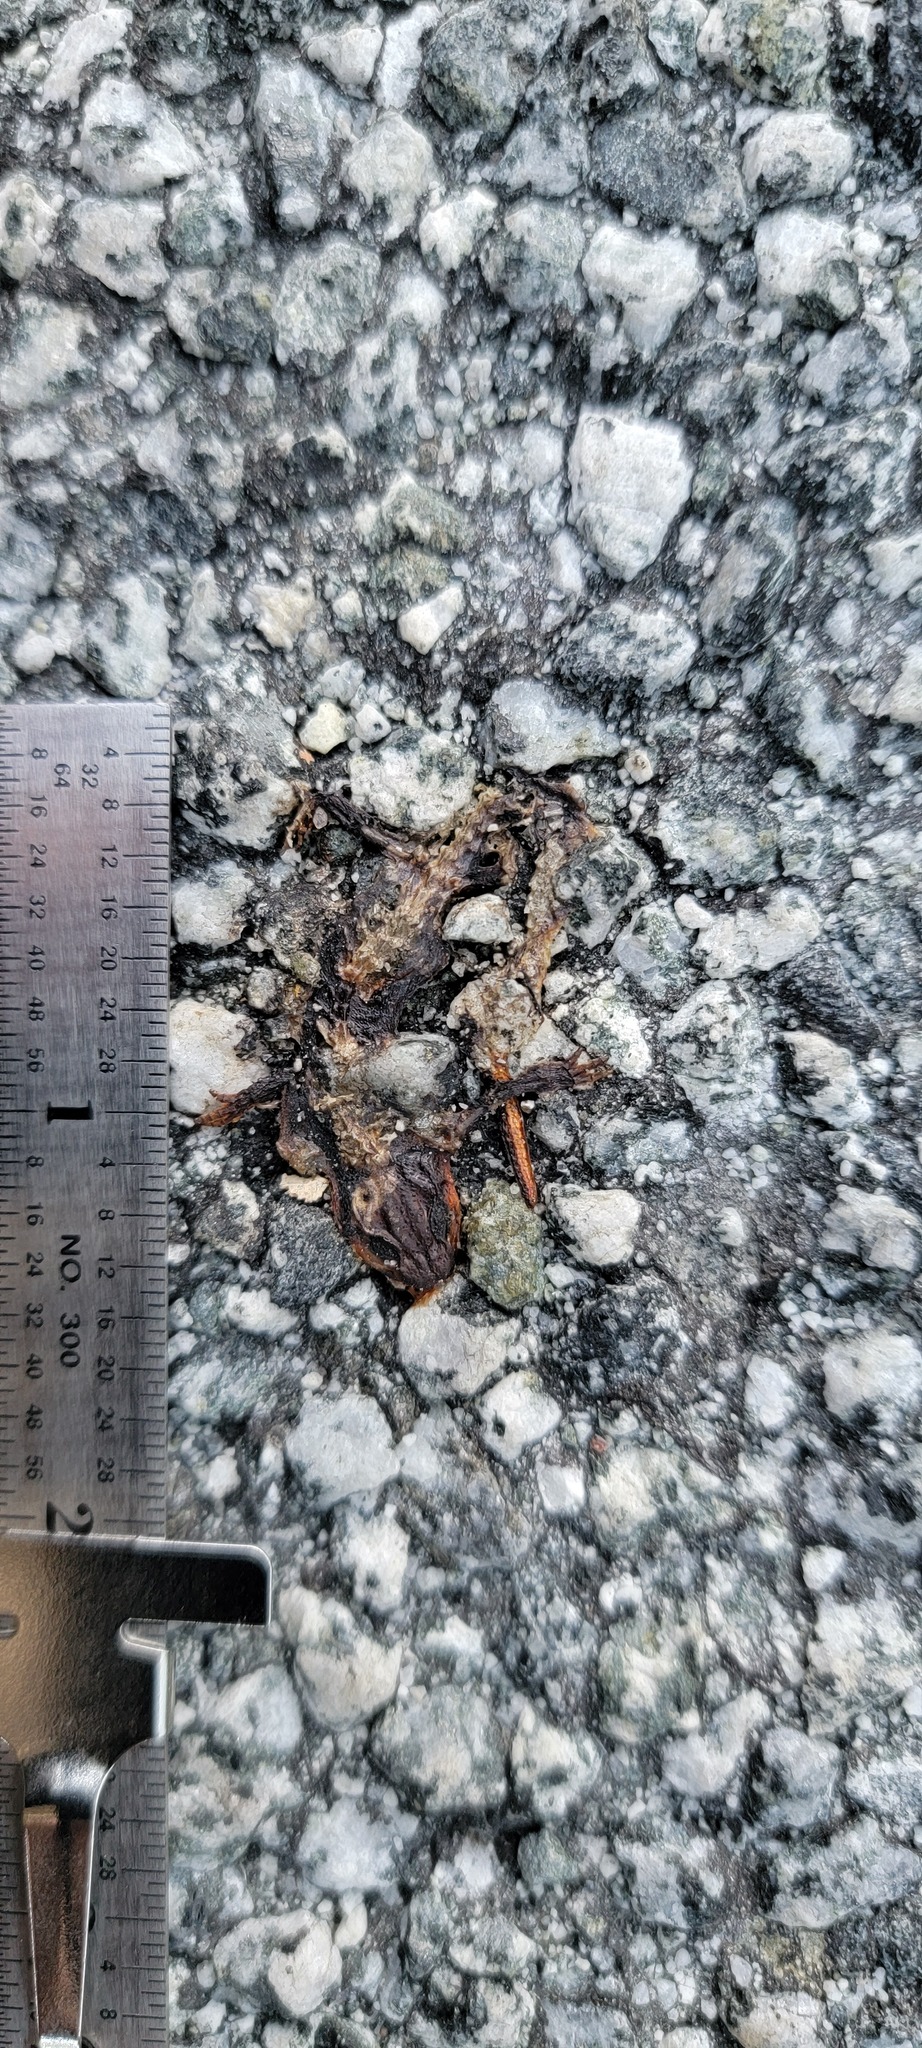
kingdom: Animalia
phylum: Chordata
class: Amphibia
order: Caudata
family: Salamandridae
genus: Taricha
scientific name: Taricha
